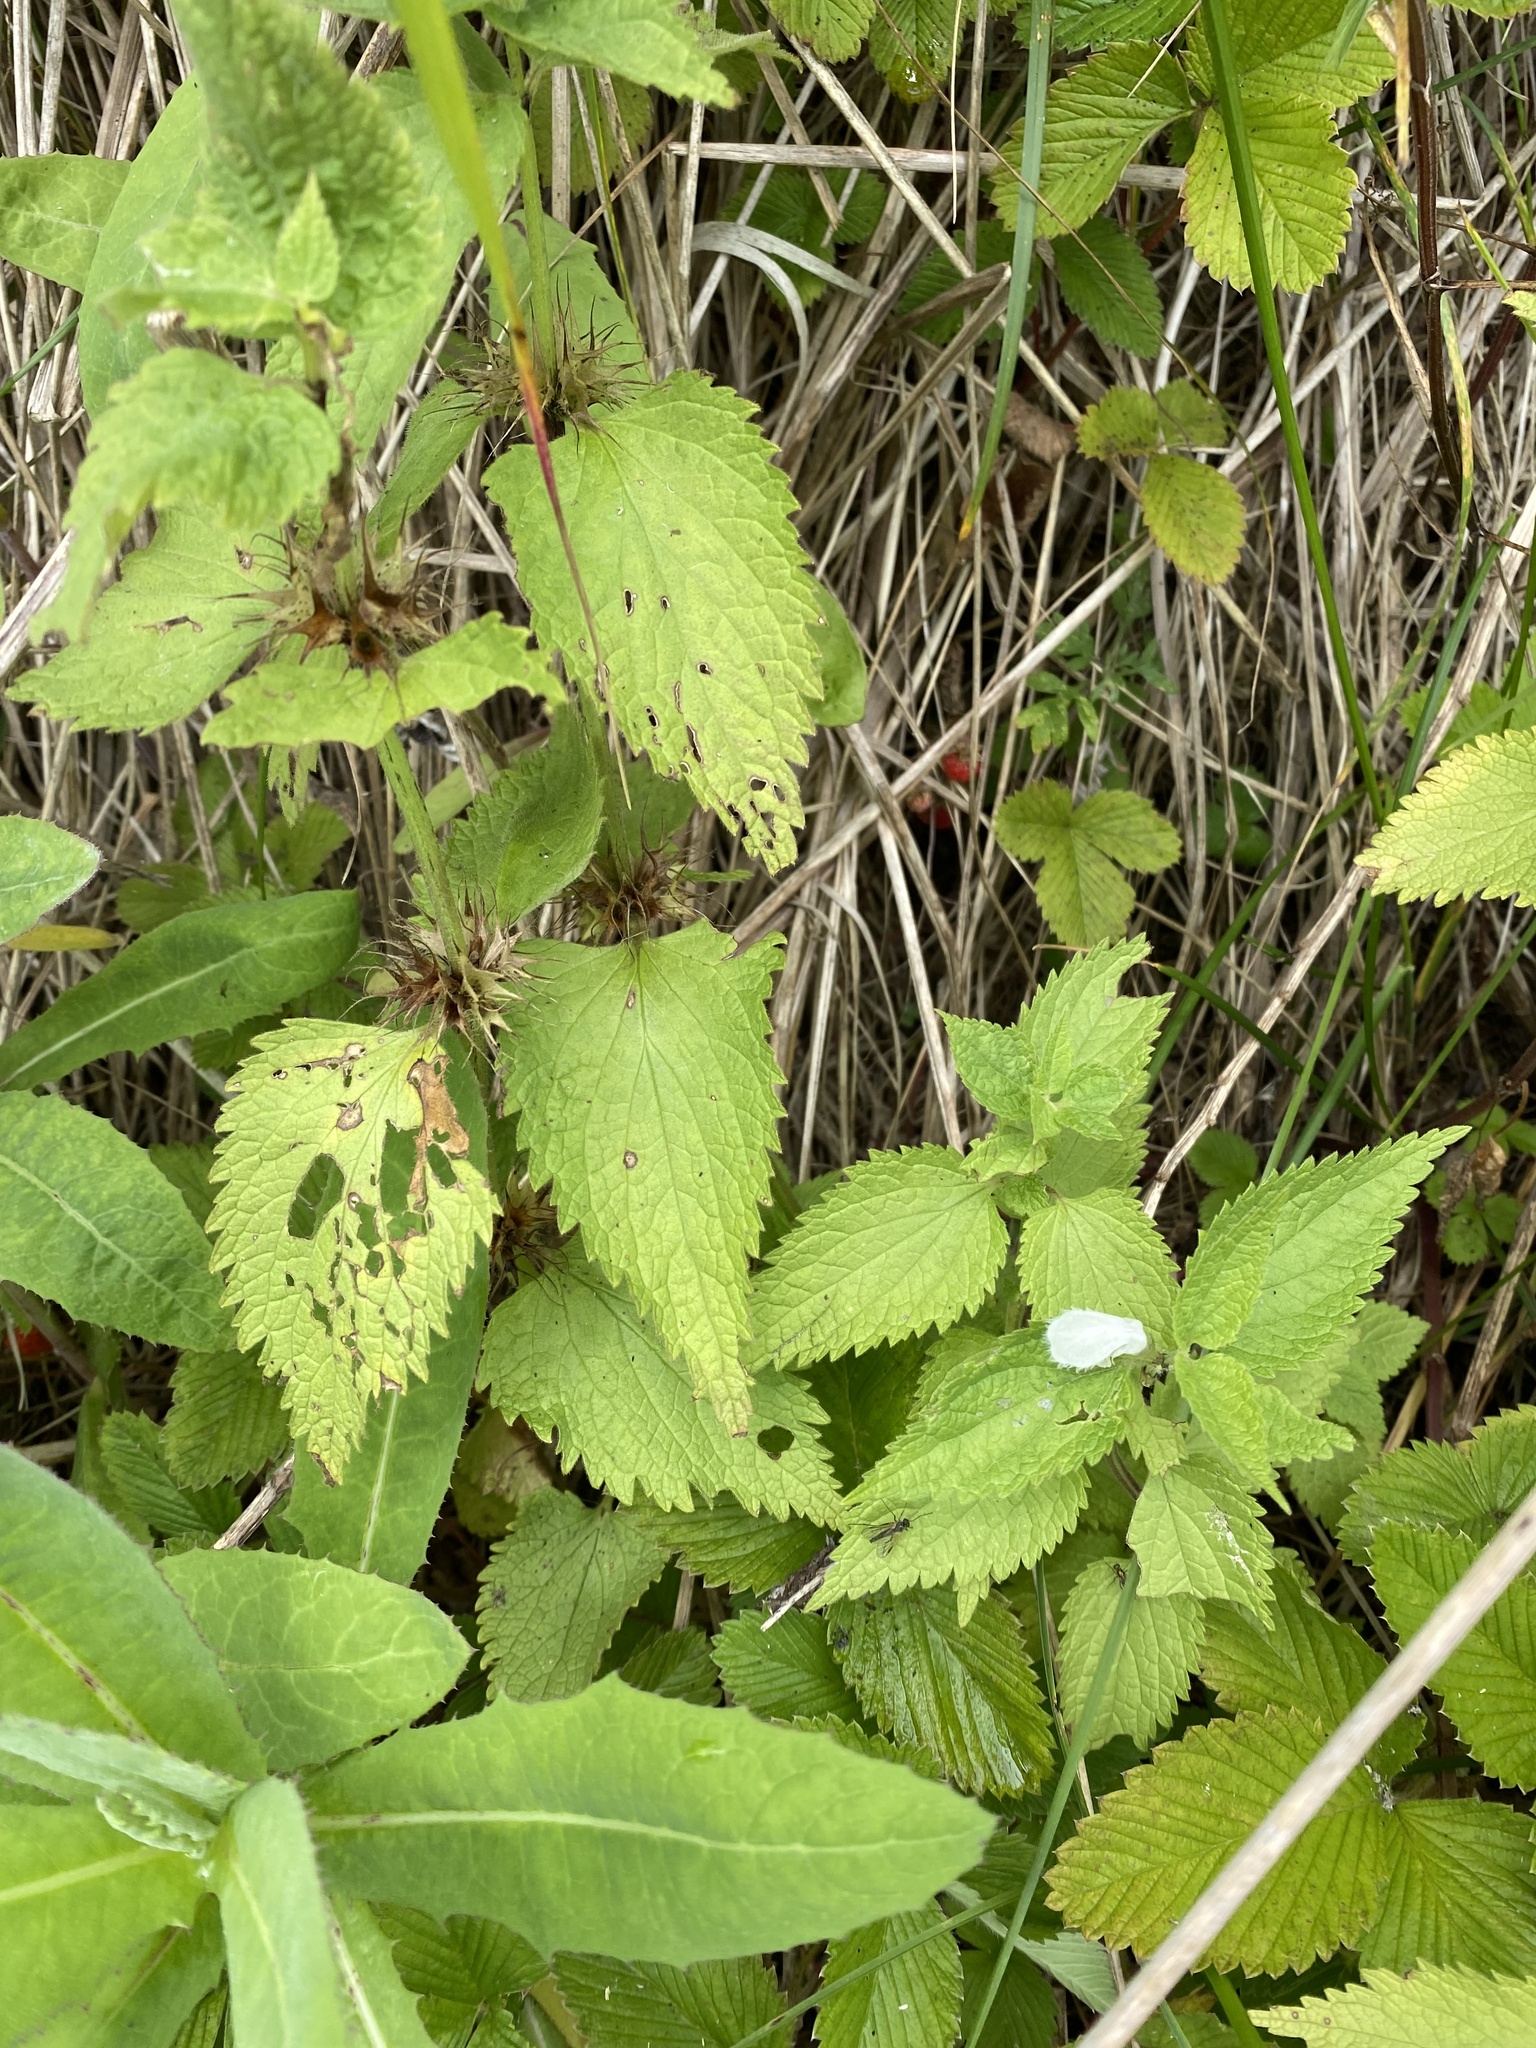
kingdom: Plantae
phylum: Tracheophyta
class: Magnoliopsida
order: Lamiales
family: Lamiaceae
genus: Lamium
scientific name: Lamium album
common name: White dead-nettle
